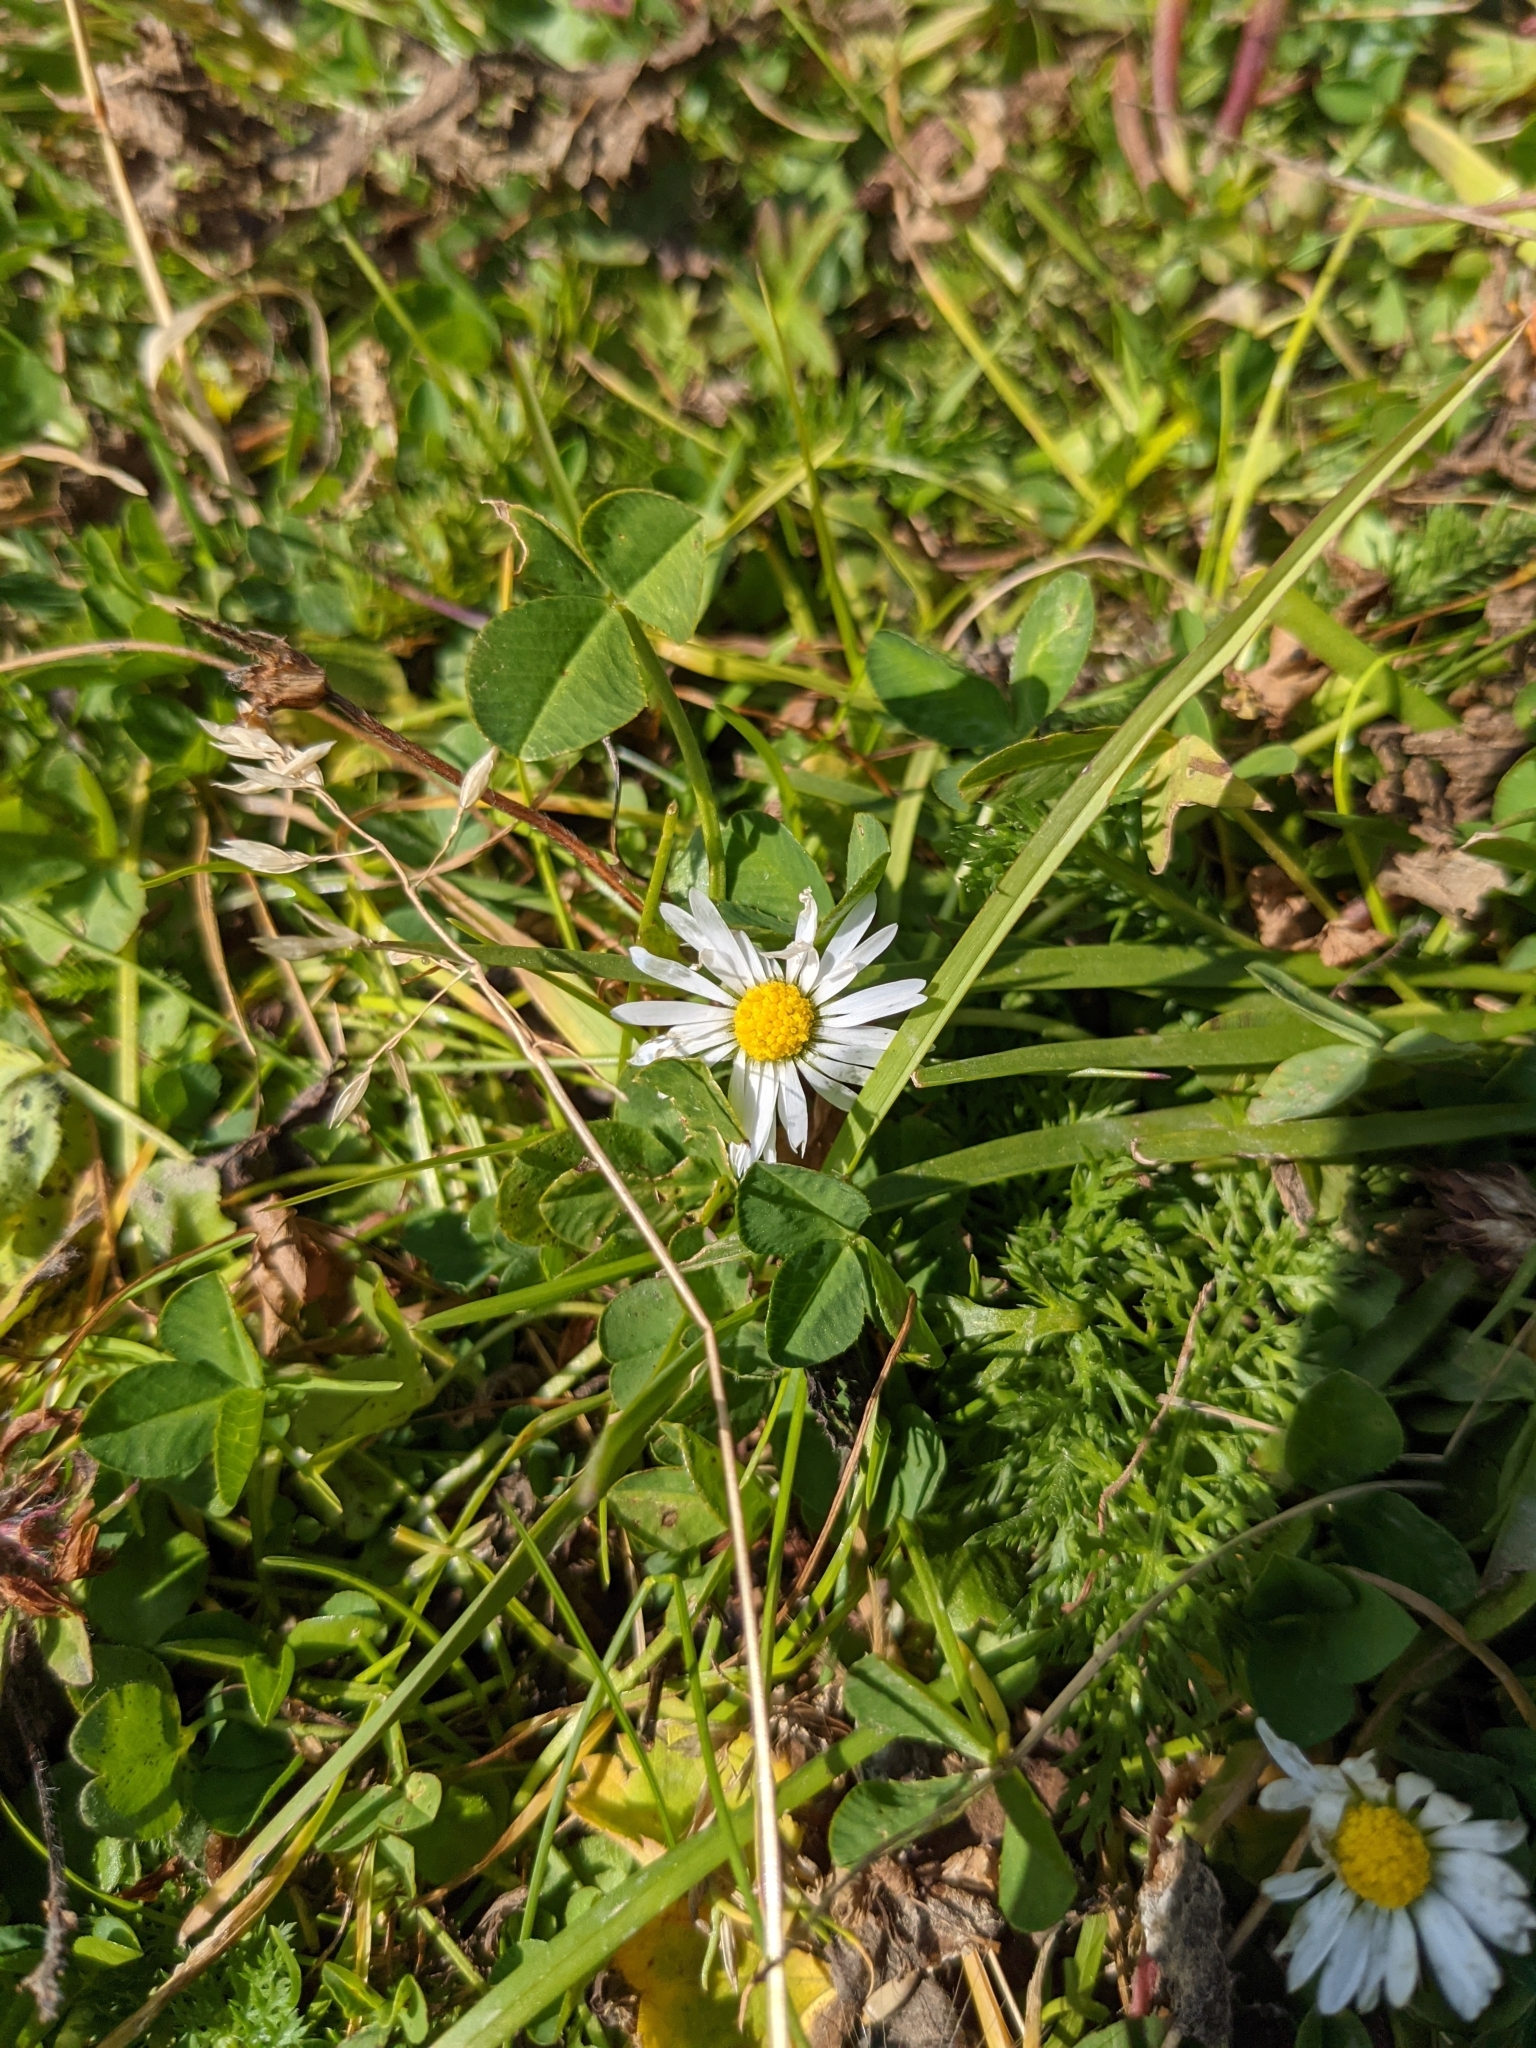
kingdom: Plantae
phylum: Tracheophyta
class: Magnoliopsida
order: Asterales
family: Asteraceae
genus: Bellis
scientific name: Bellis perennis
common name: Lawndaisy
